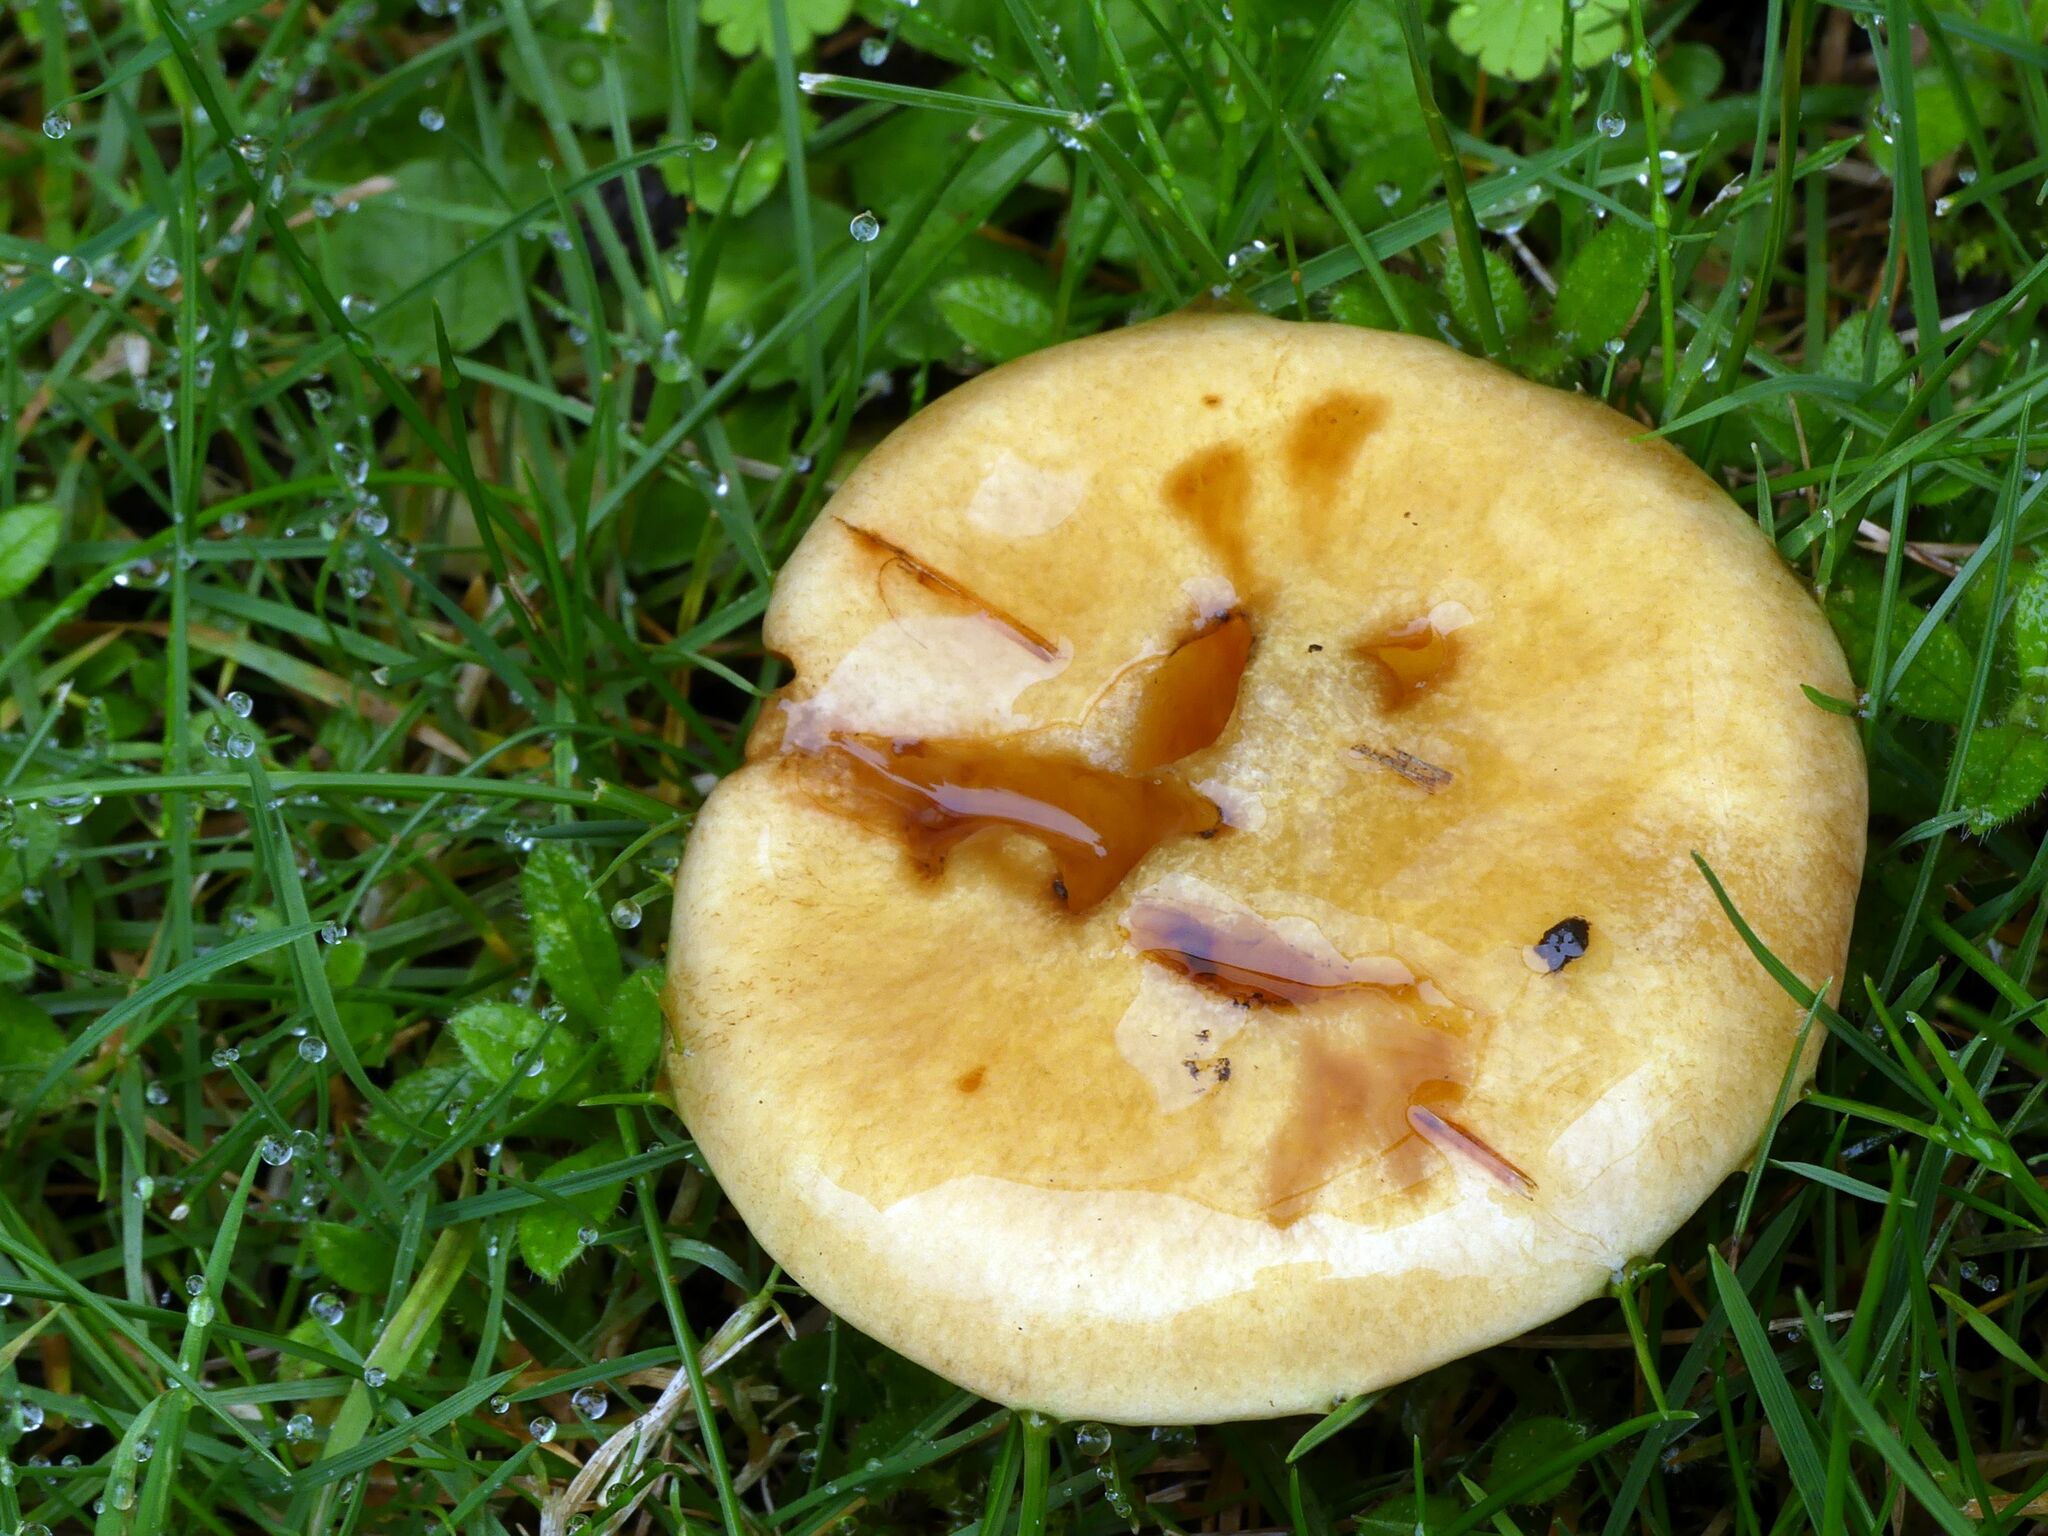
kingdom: Fungi
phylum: Basidiomycota
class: Agaricomycetes
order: Boletales
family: Suillaceae
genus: Suillus
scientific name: Suillus grevillei
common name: Larch bolete
